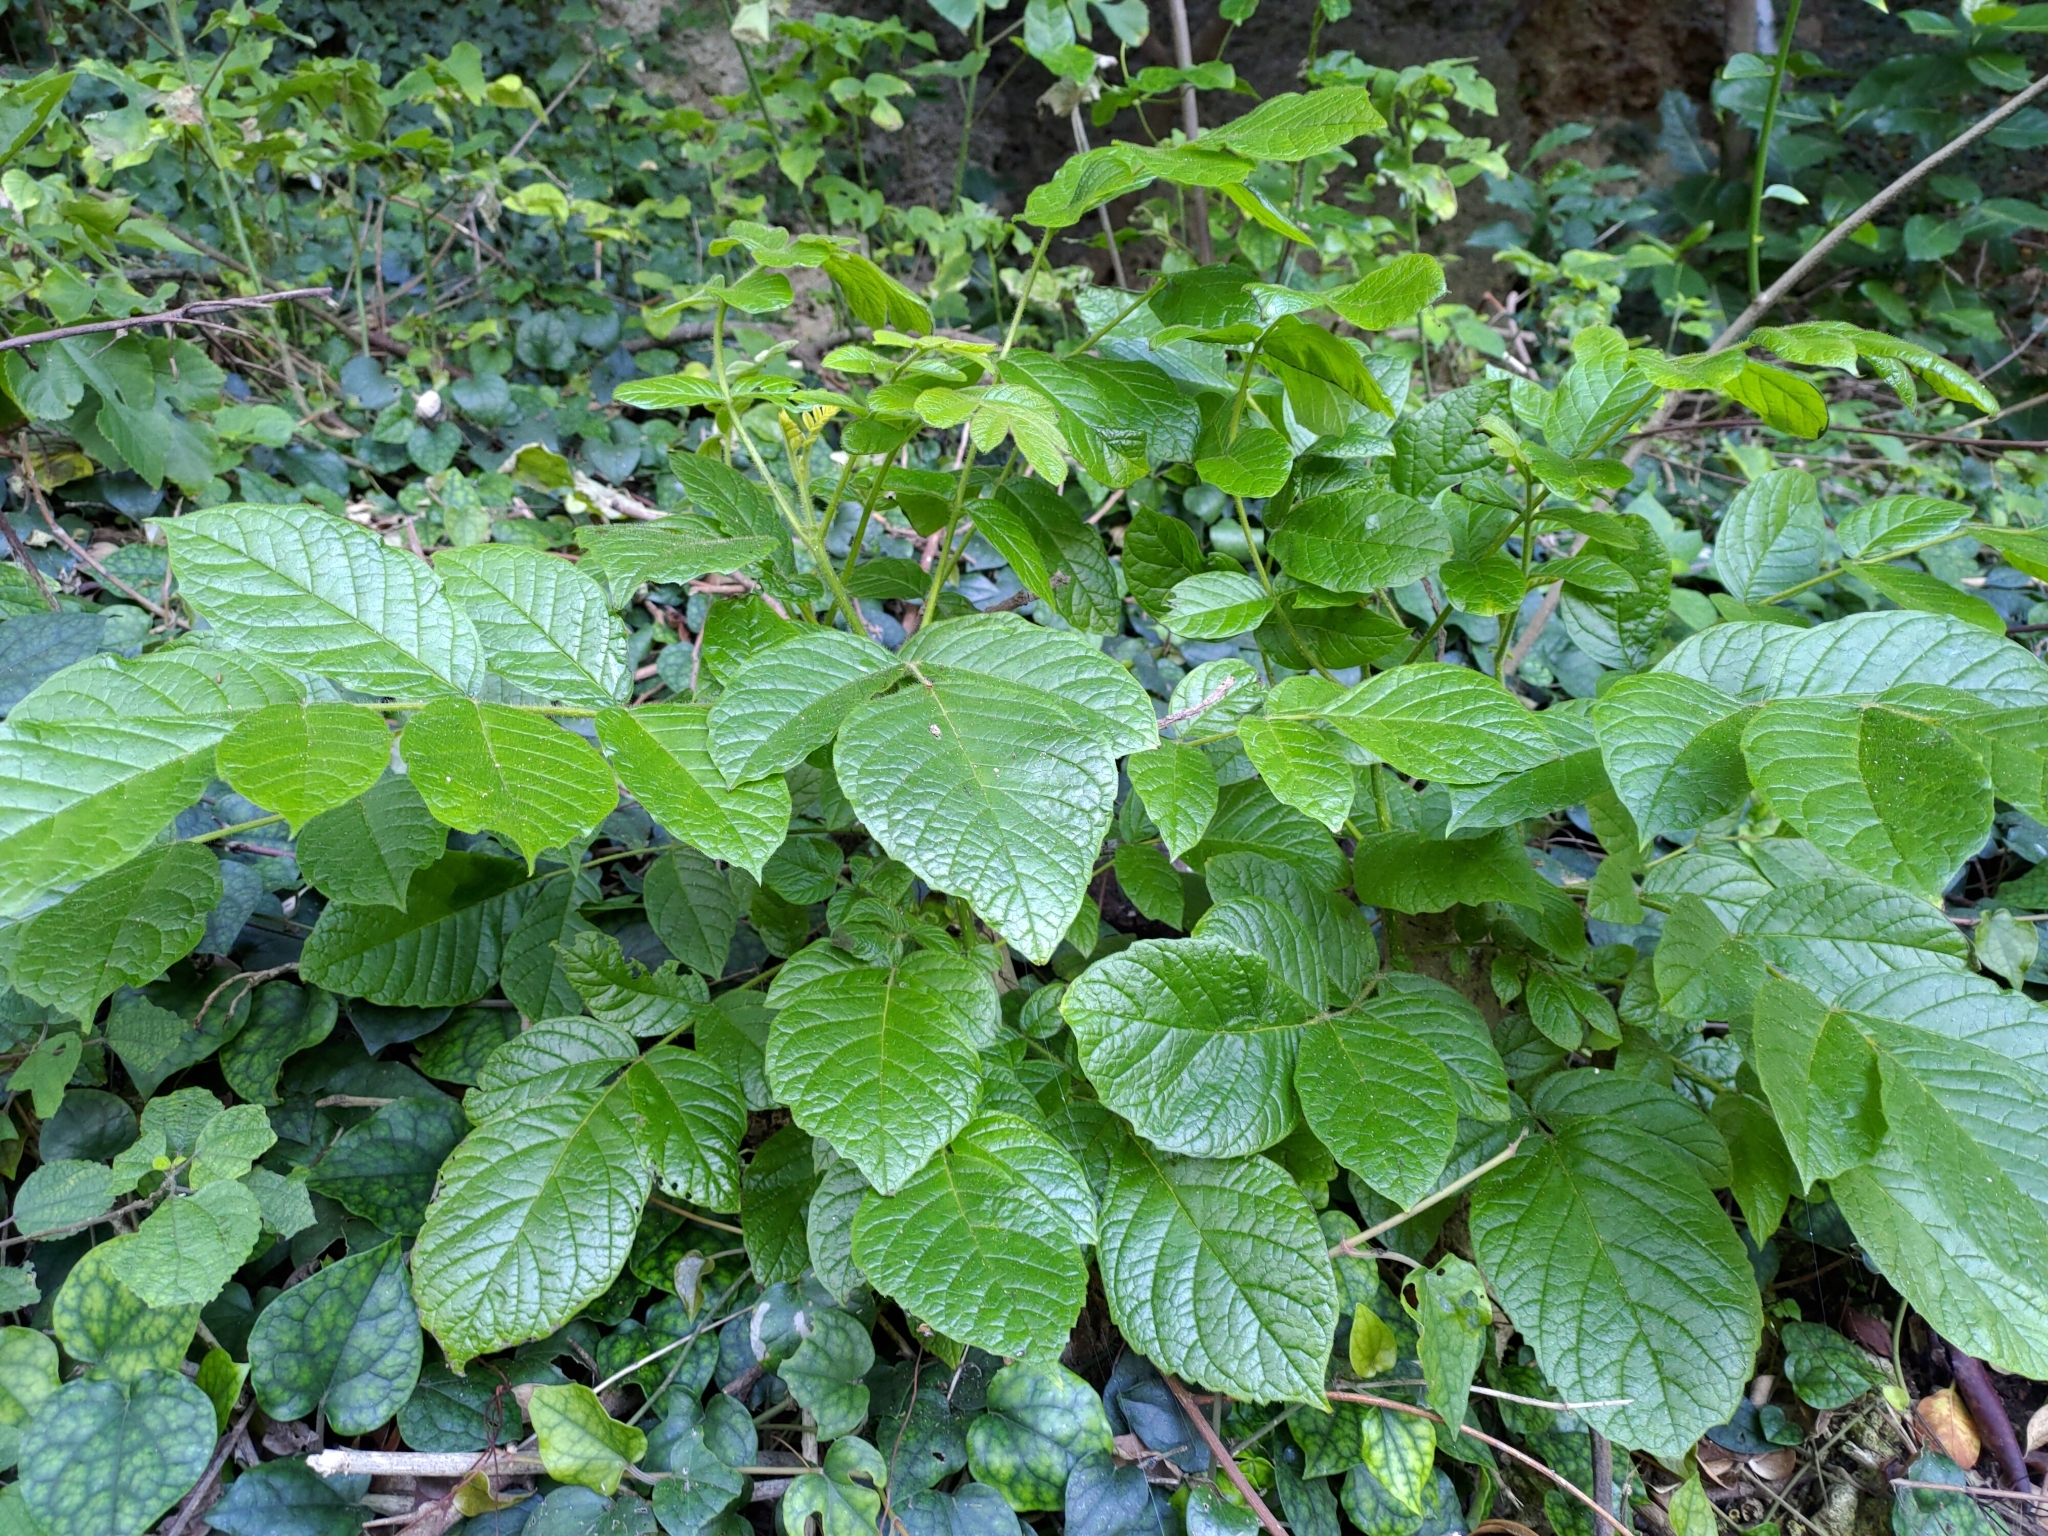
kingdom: Plantae
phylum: Tracheophyta
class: Magnoliopsida
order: Lamiales
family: Bignoniaceae
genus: Spathodea
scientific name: Spathodea campanulata
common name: African tuliptree
